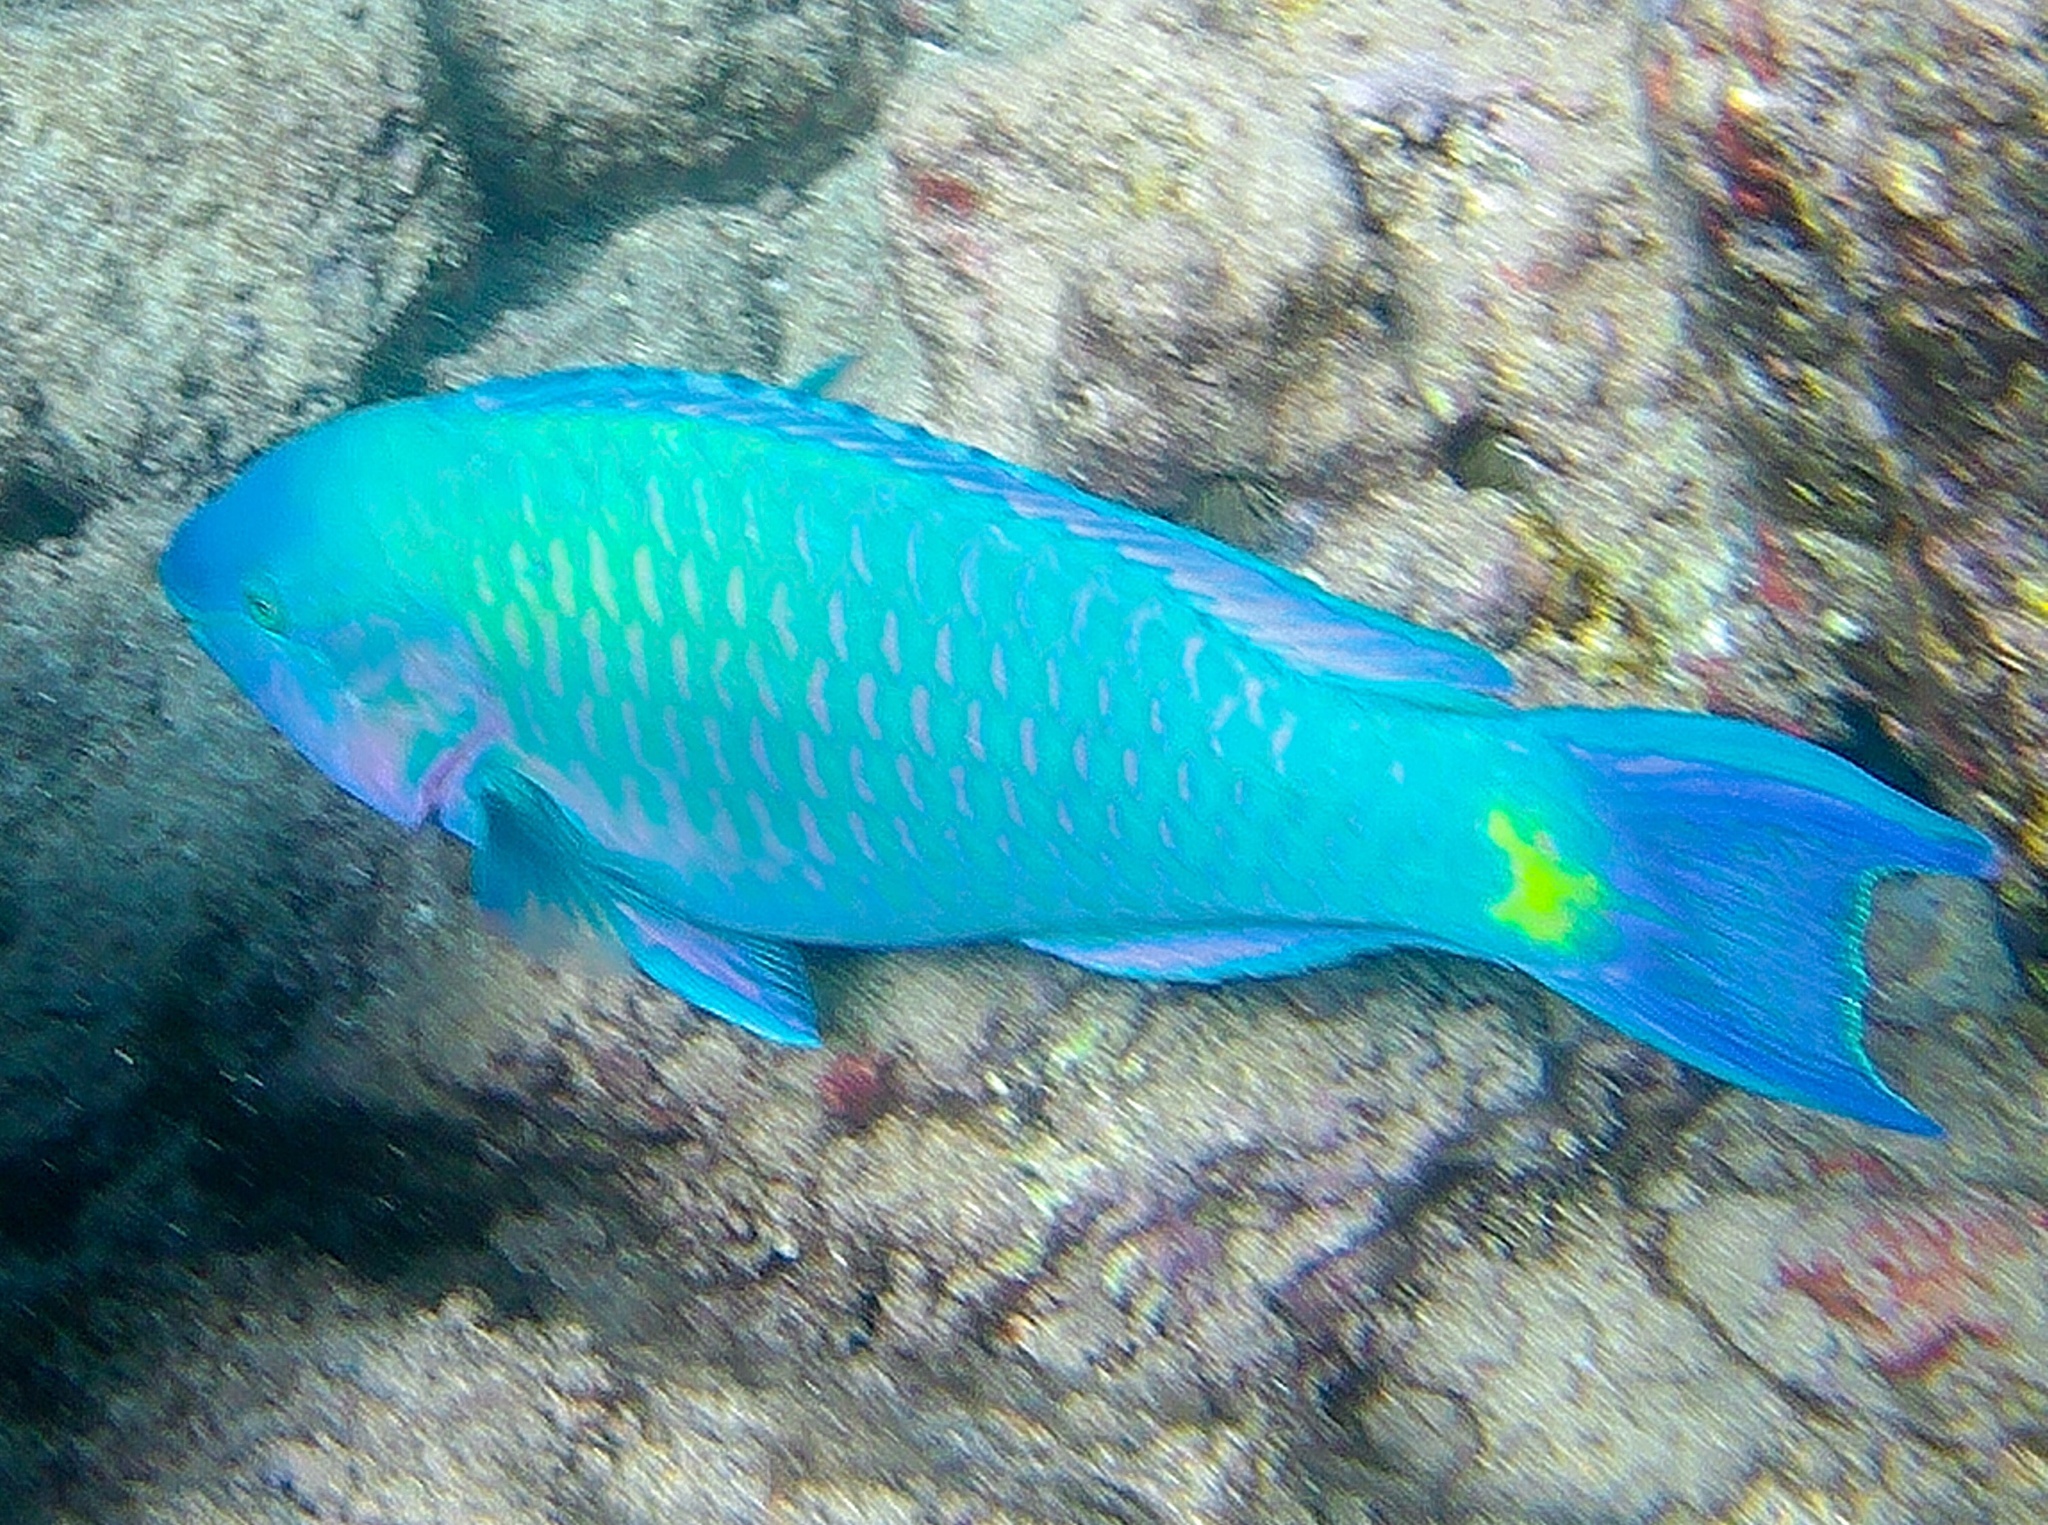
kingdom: Animalia
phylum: Chordata
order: Perciformes
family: Scaridae
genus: Scarus
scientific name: Scarus psittacus
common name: Palenose parrotfish
